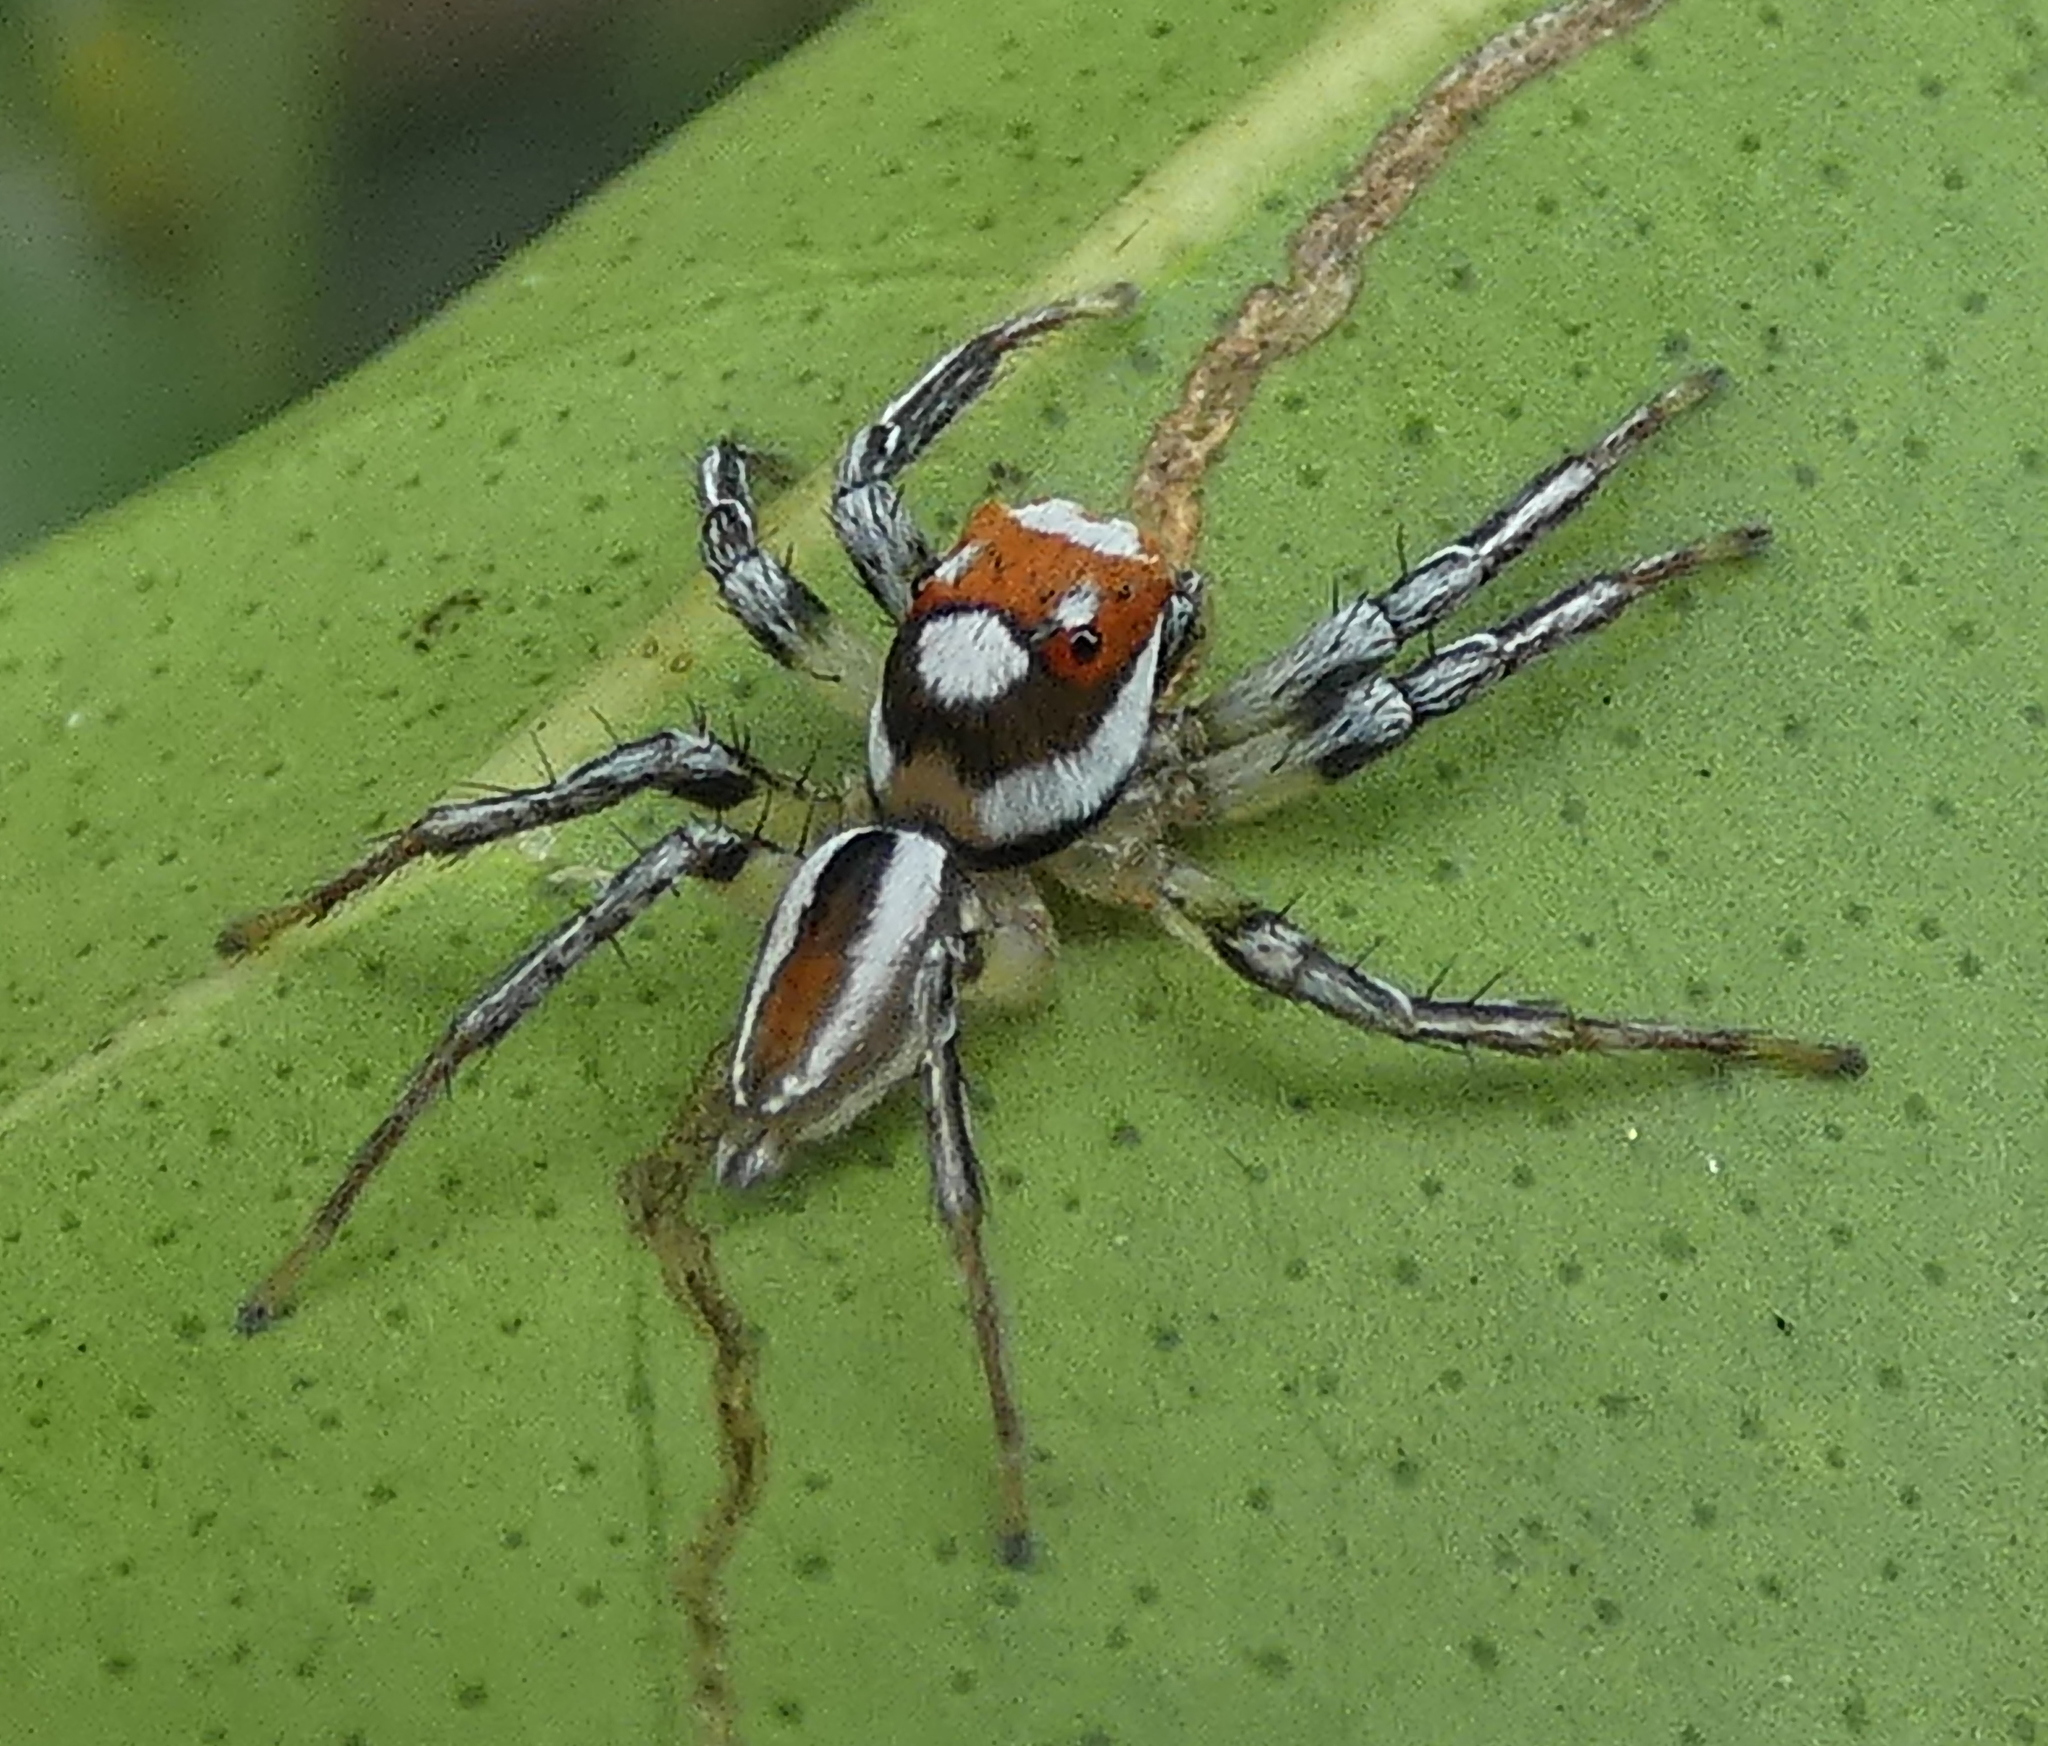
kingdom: Animalia
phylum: Arthropoda
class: Arachnida
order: Araneae
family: Salticidae
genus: Chira
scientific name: Chira simoni
